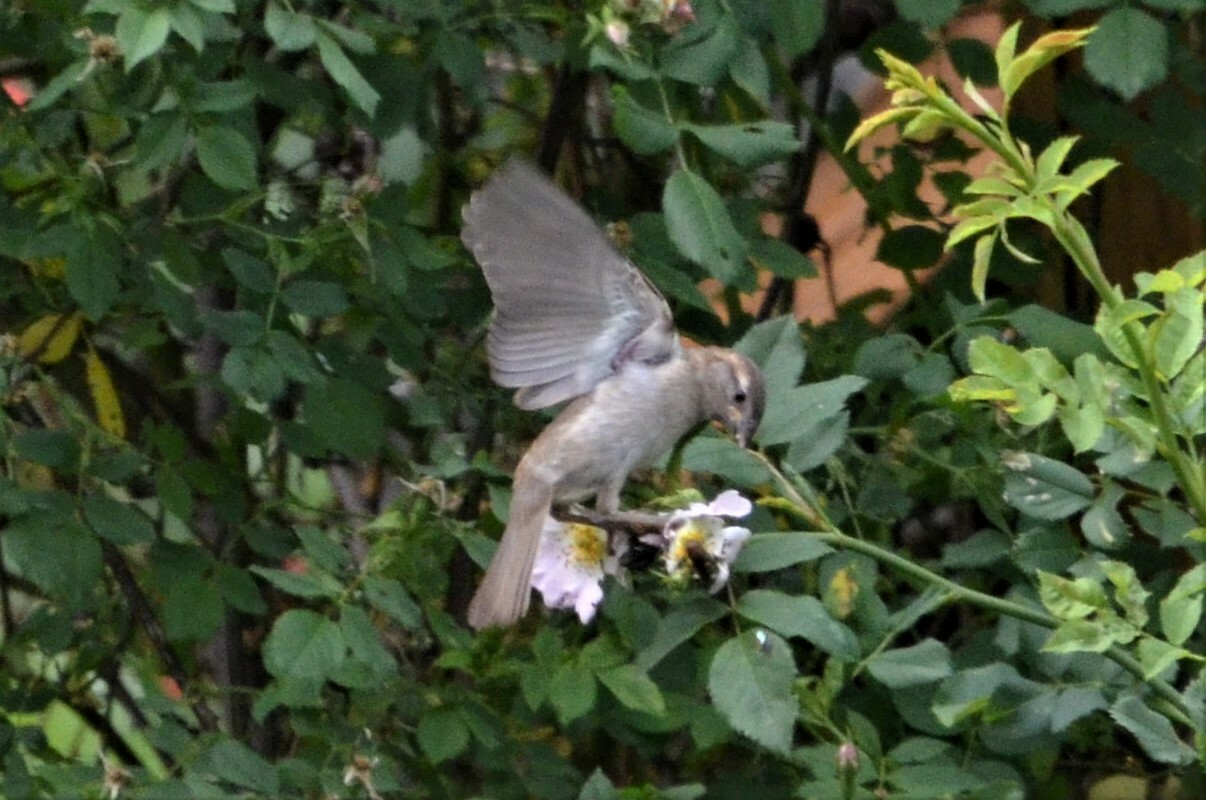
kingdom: Animalia
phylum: Chordata
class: Aves
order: Passeriformes
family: Passeridae
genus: Passer
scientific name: Passer domesticus
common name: House sparrow
